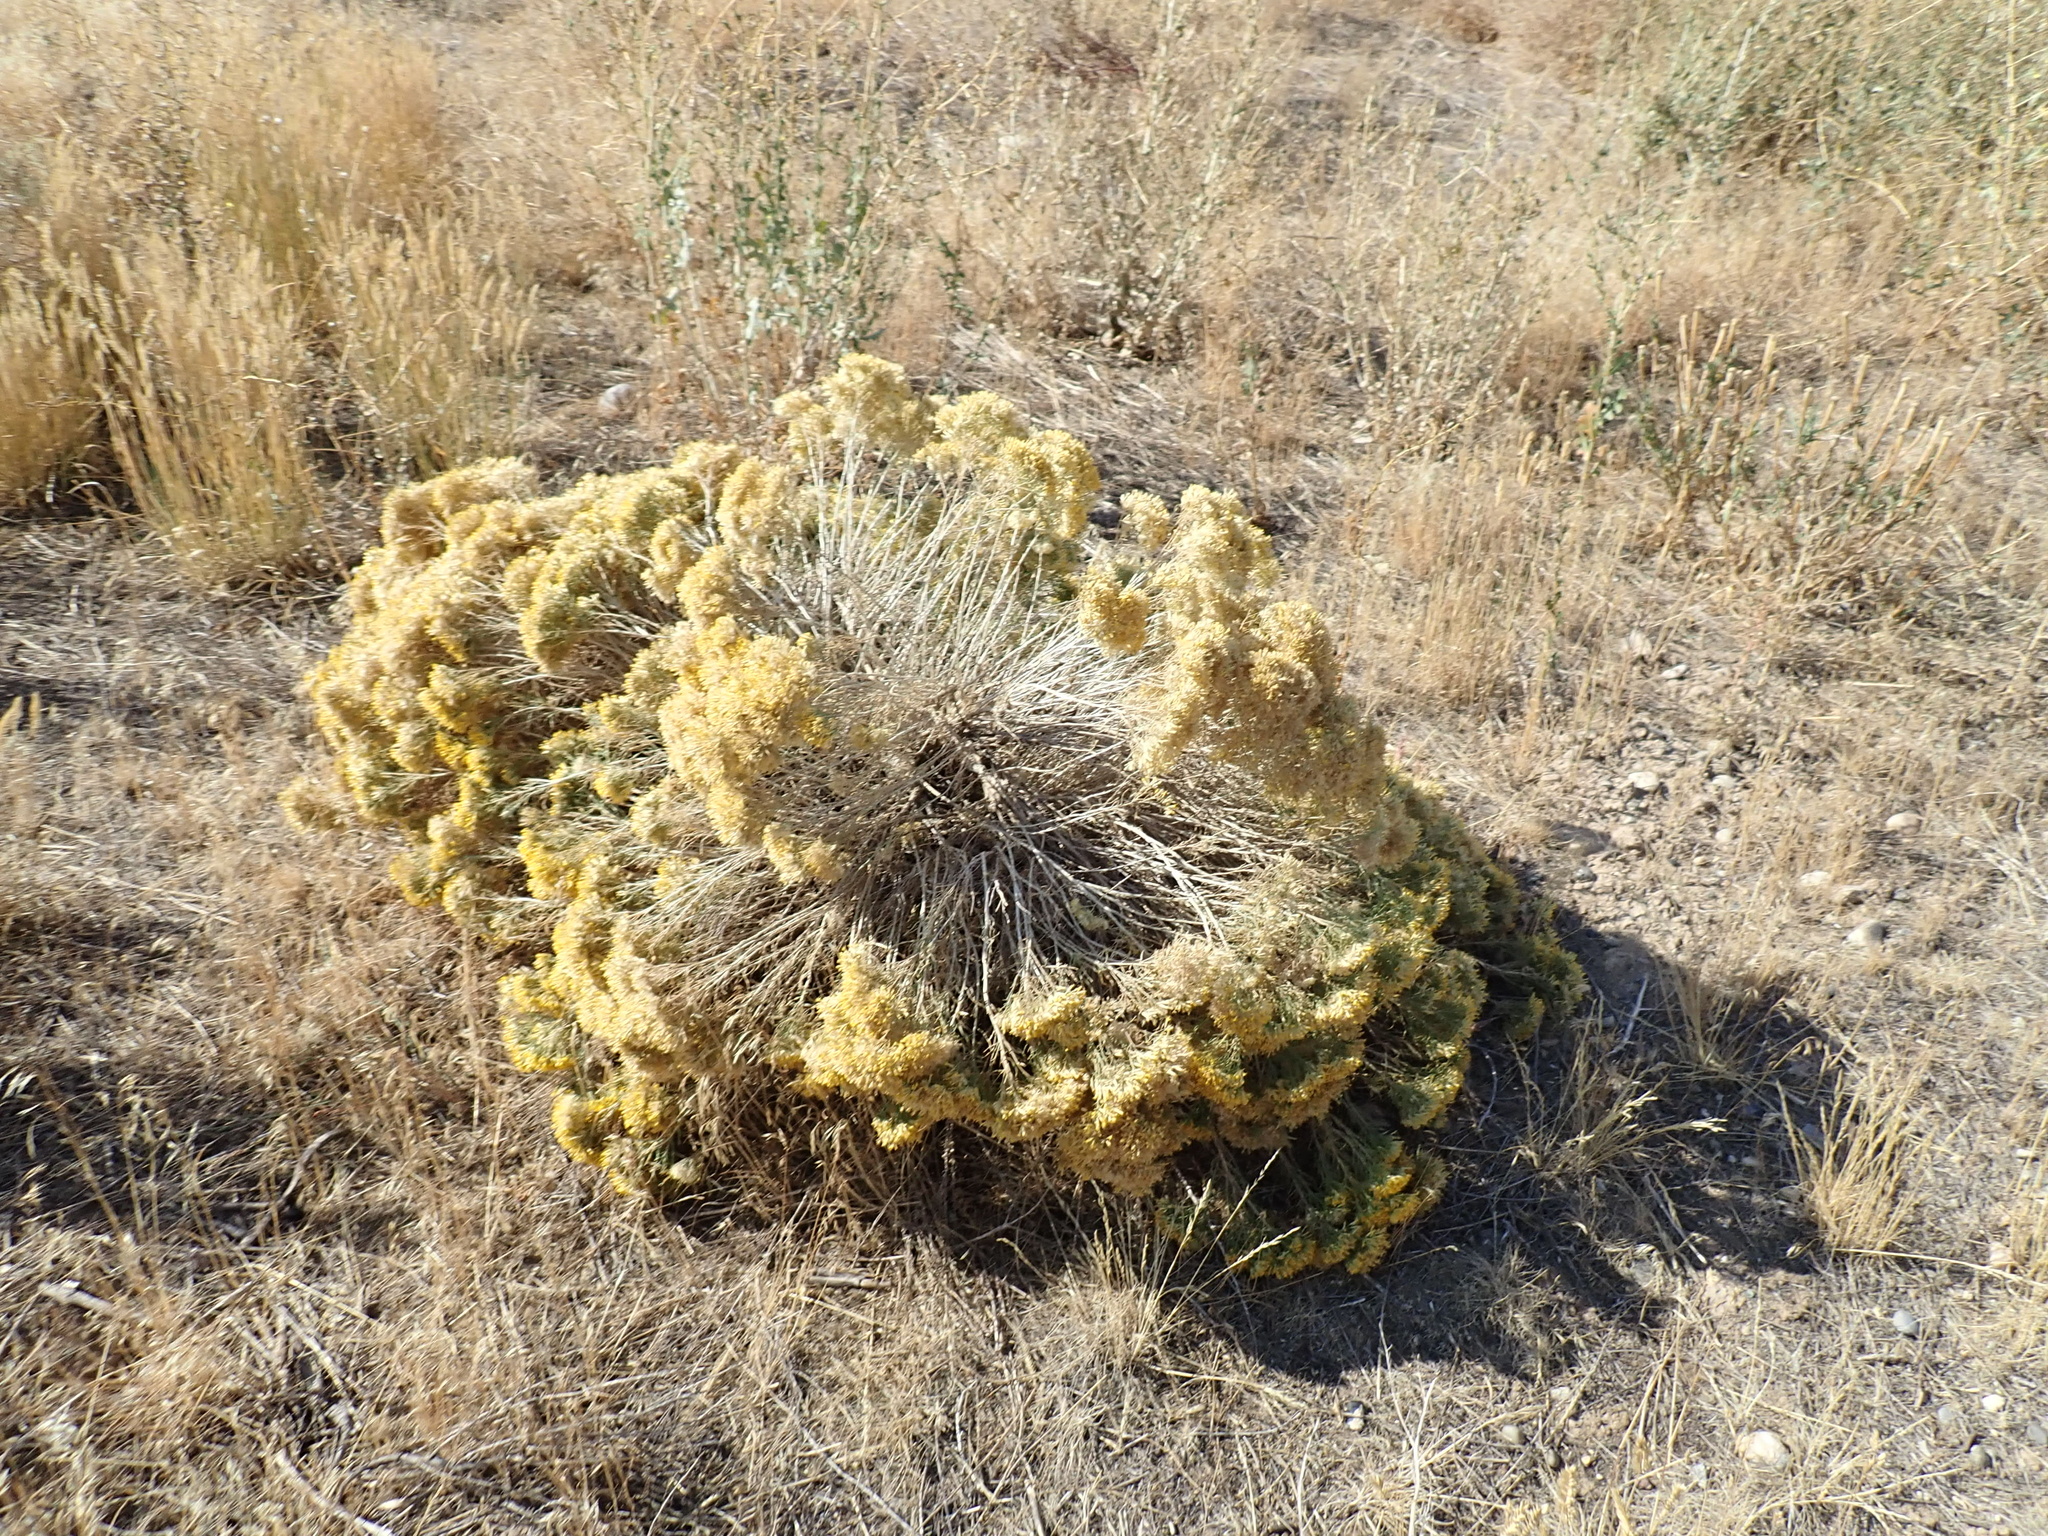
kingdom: Plantae
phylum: Tracheophyta
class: Magnoliopsida
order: Asterales
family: Asteraceae
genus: Ericameria
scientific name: Ericameria nauseosa
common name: Rubber rabbitbrush
